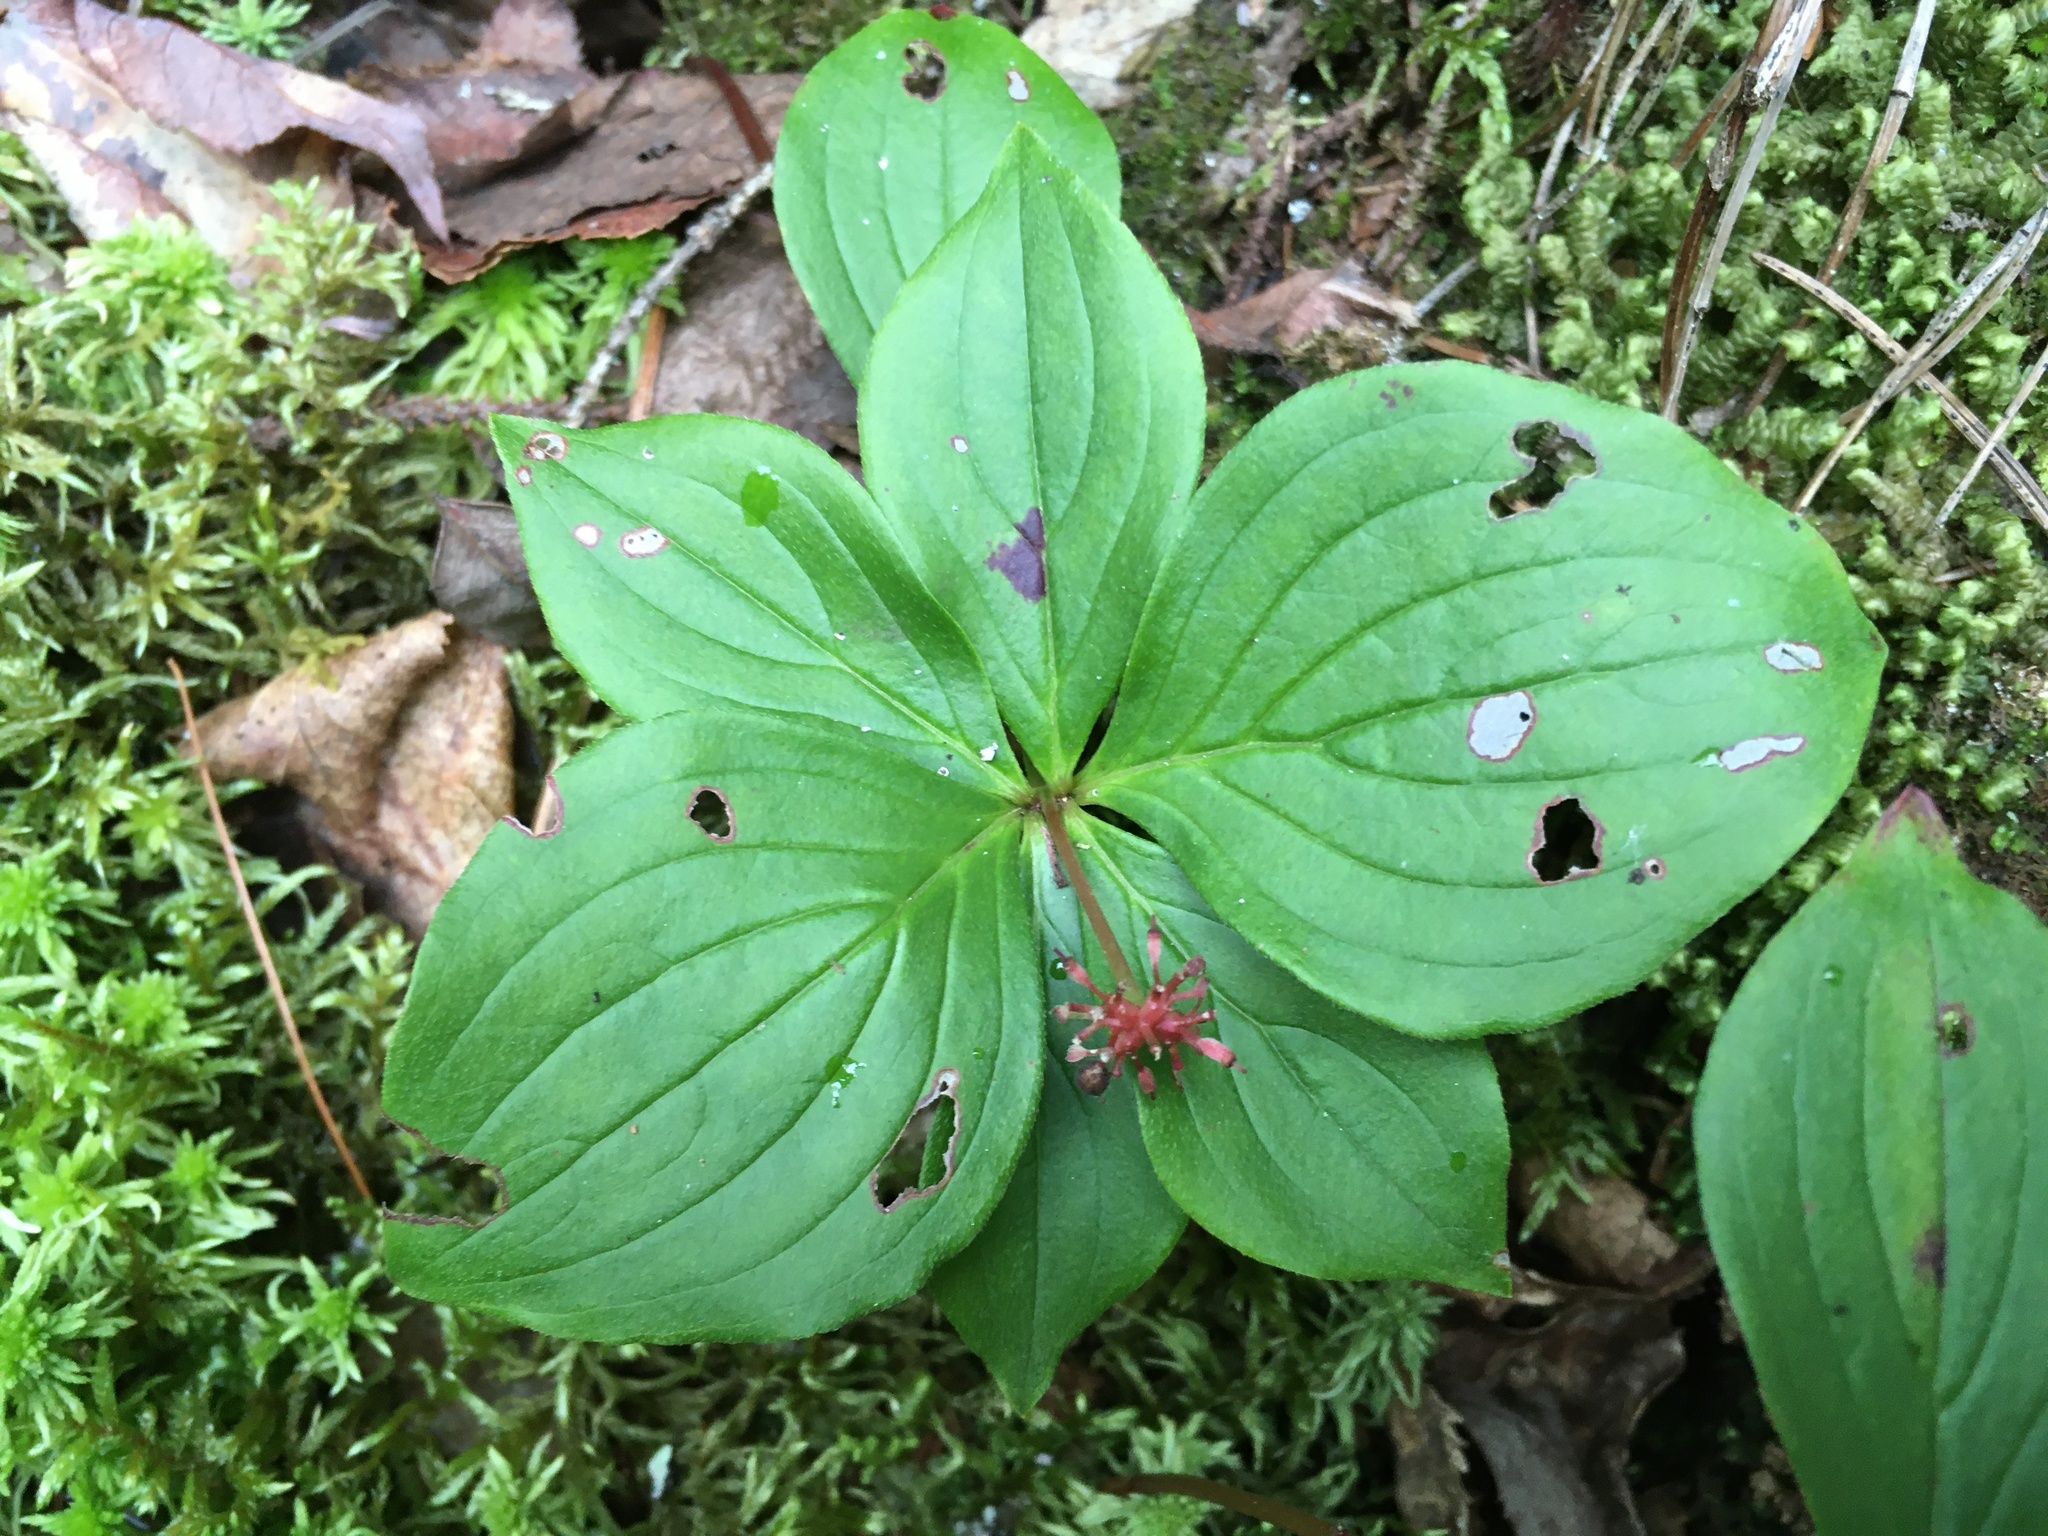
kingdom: Plantae
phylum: Tracheophyta
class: Magnoliopsida
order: Cornales
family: Cornaceae
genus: Cornus
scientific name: Cornus canadensis
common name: Creeping dogwood
